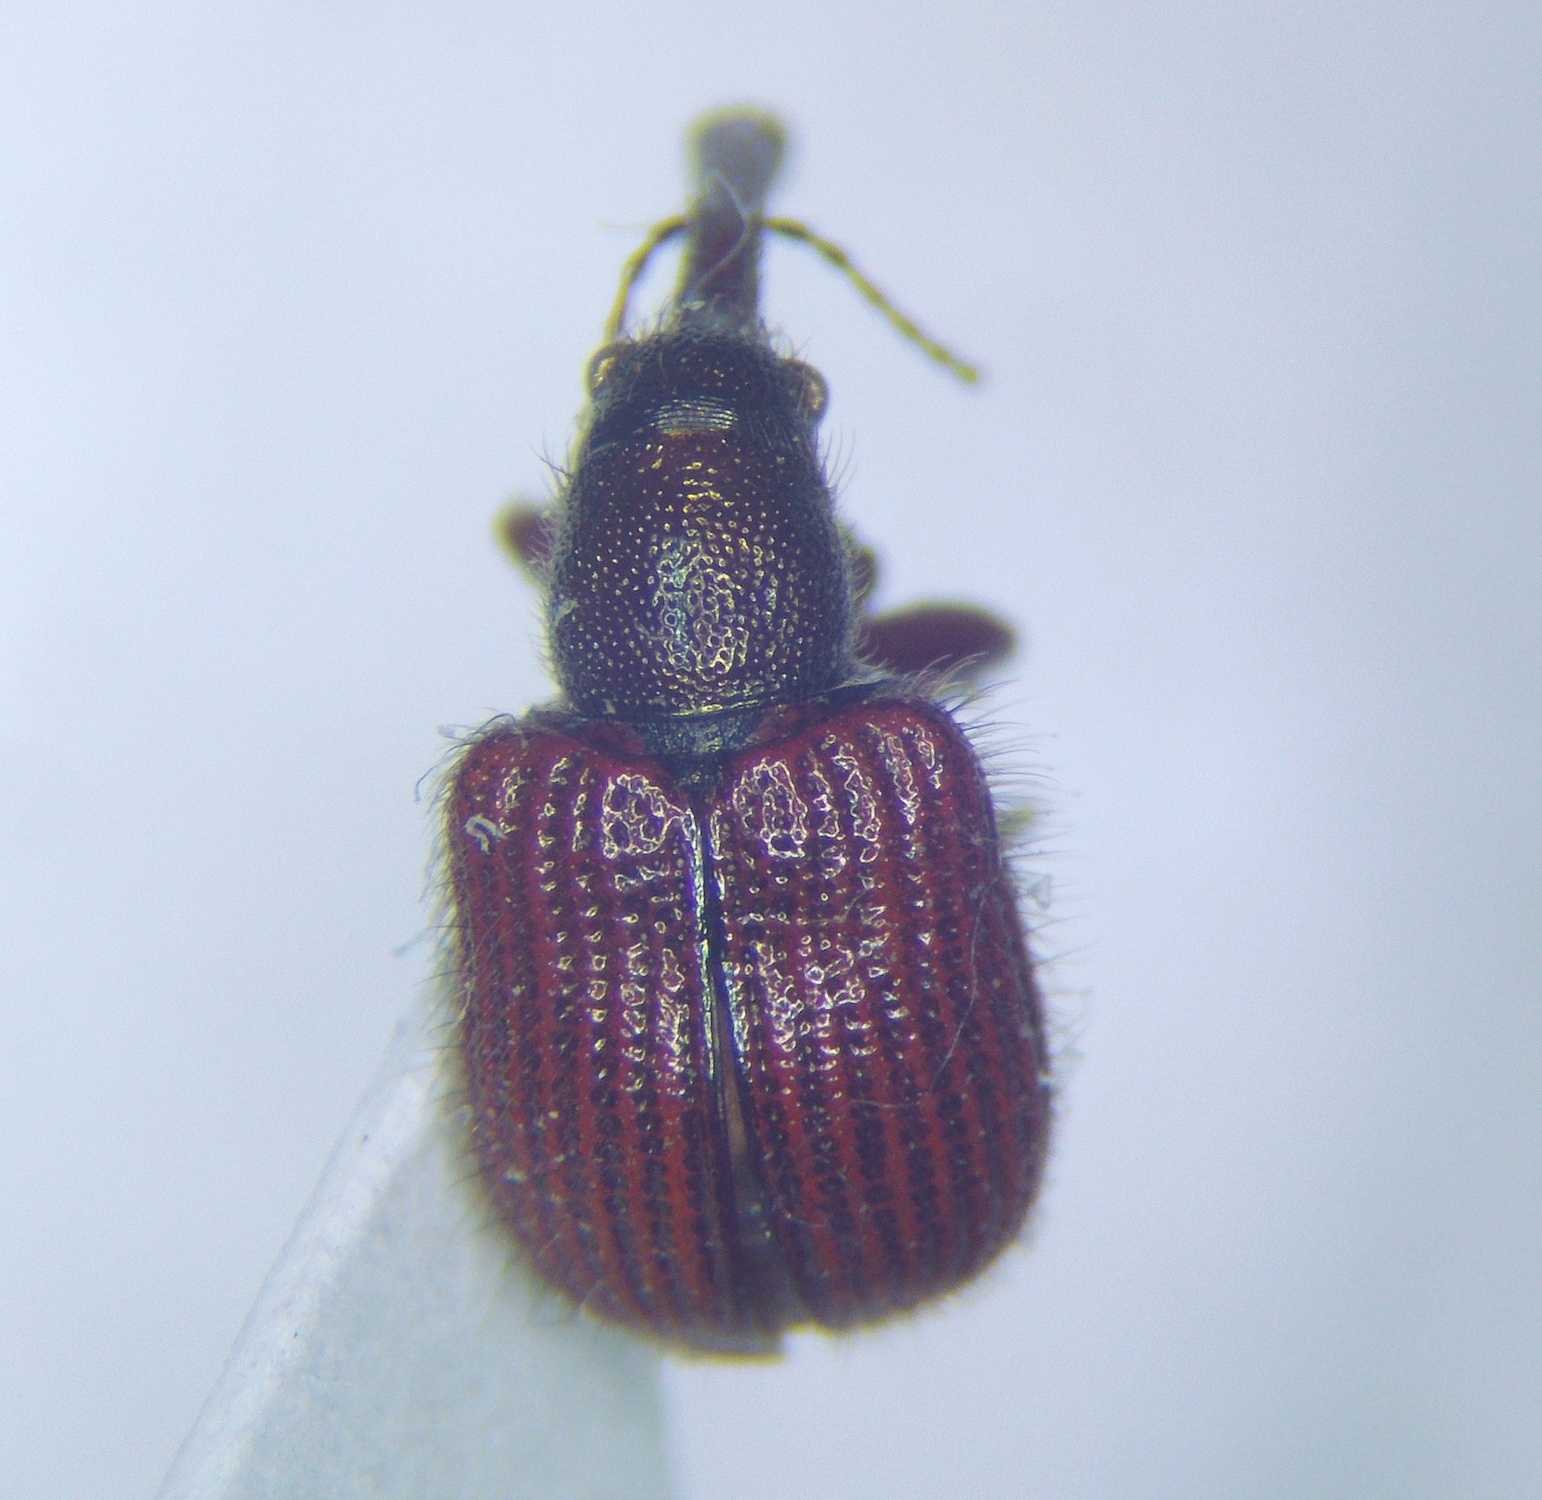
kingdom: Animalia
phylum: Arthropoda
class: Insecta
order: Coleoptera
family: Rhynchitidae
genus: Tatianaerhynchites
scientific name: Tatianaerhynchites aequatus
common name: Apple fruit rhynchites
